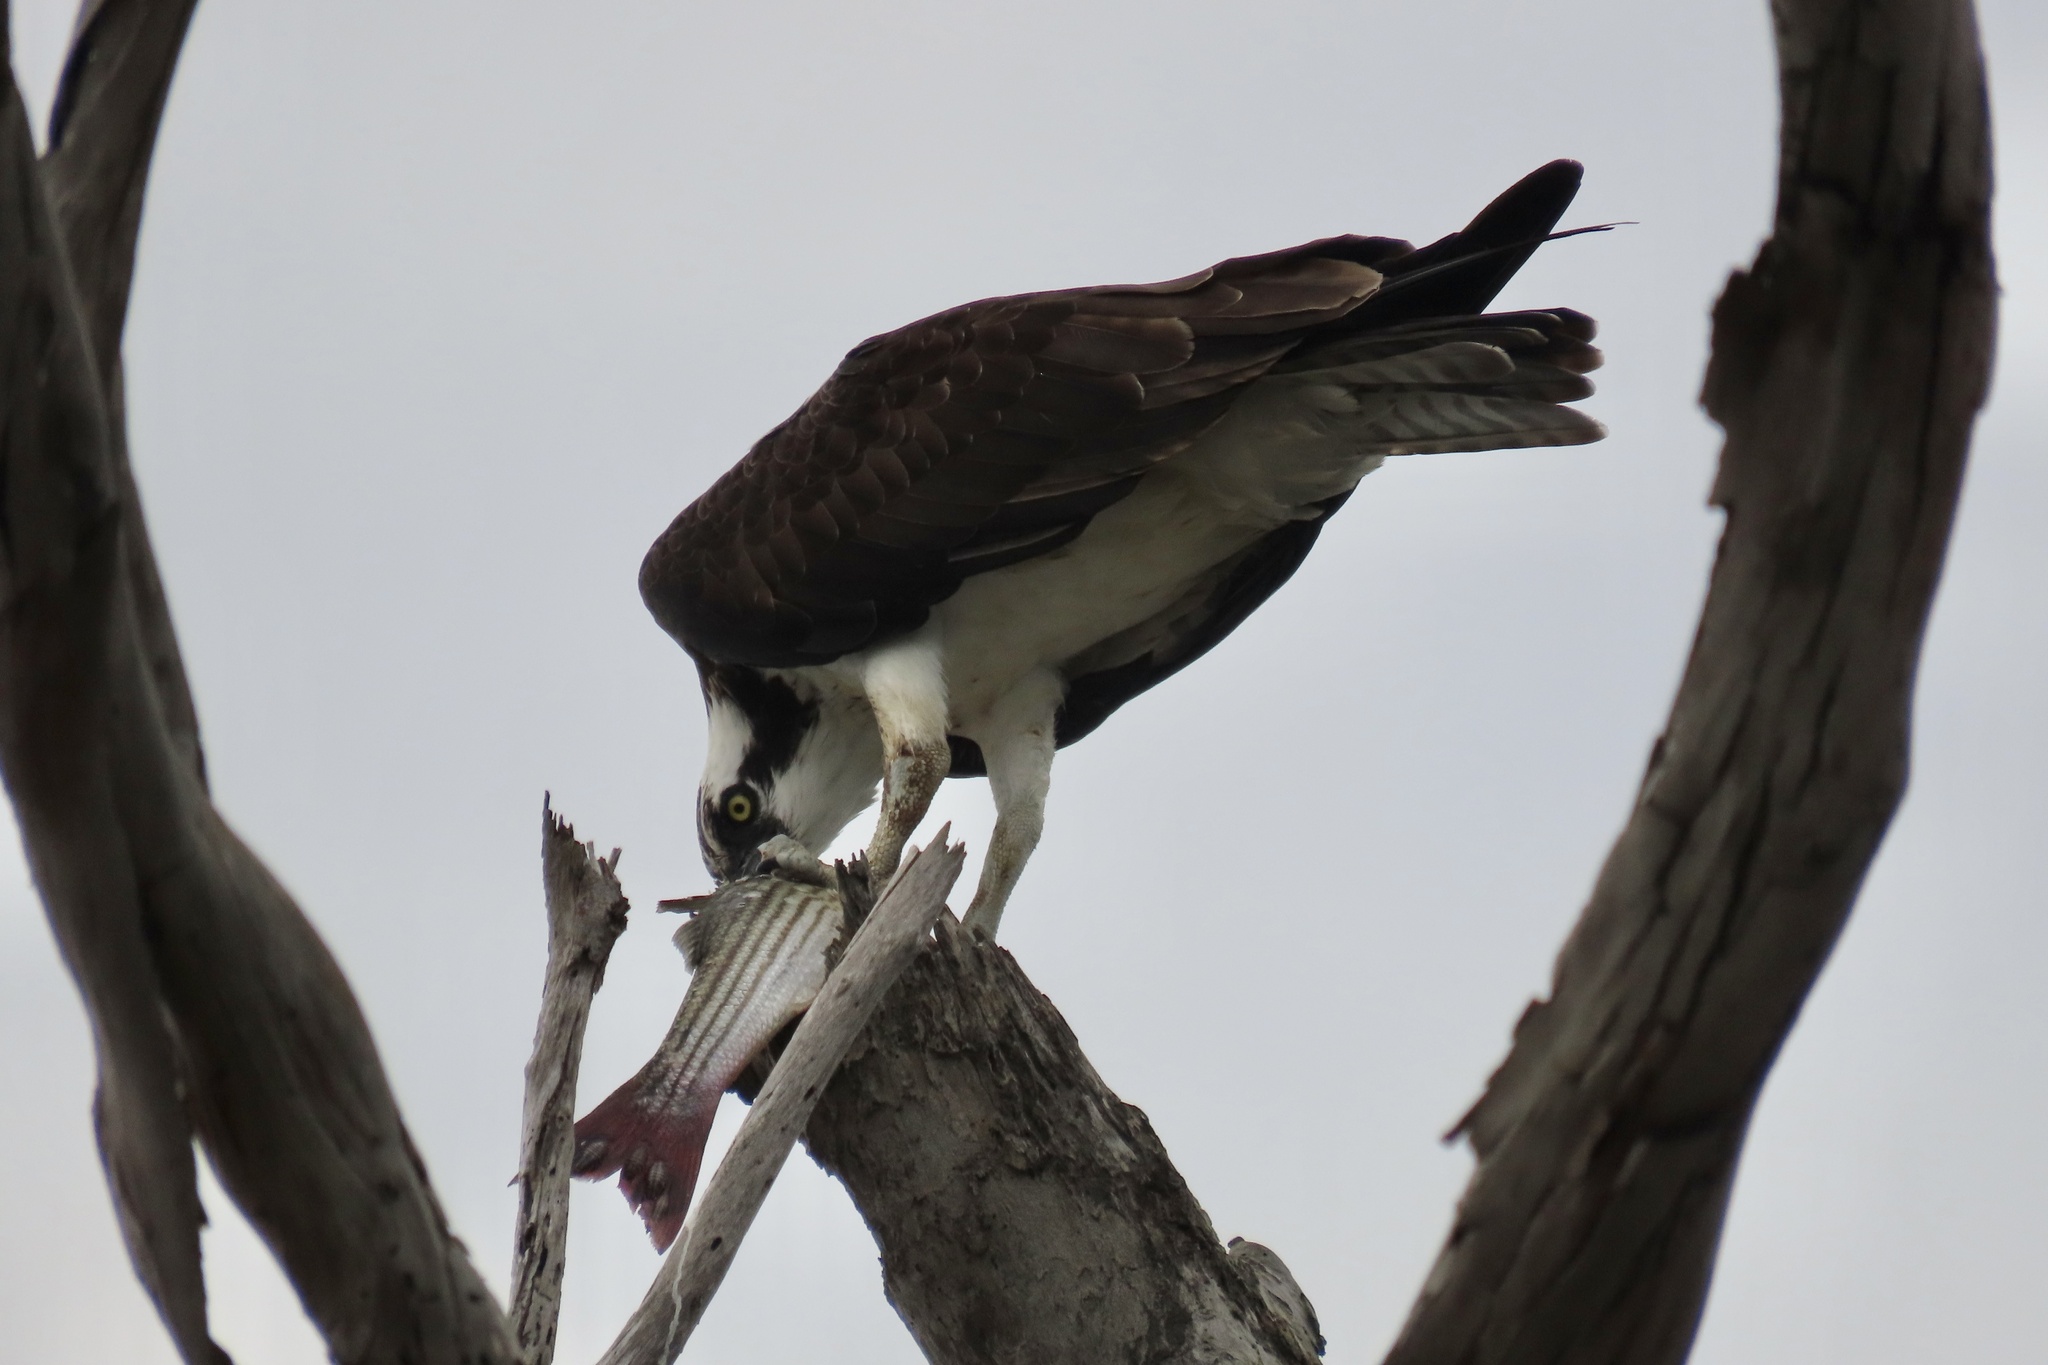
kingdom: Animalia
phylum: Chordata
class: Aves
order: Accipitriformes
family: Pandionidae
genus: Pandion
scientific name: Pandion haliaetus
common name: Osprey
